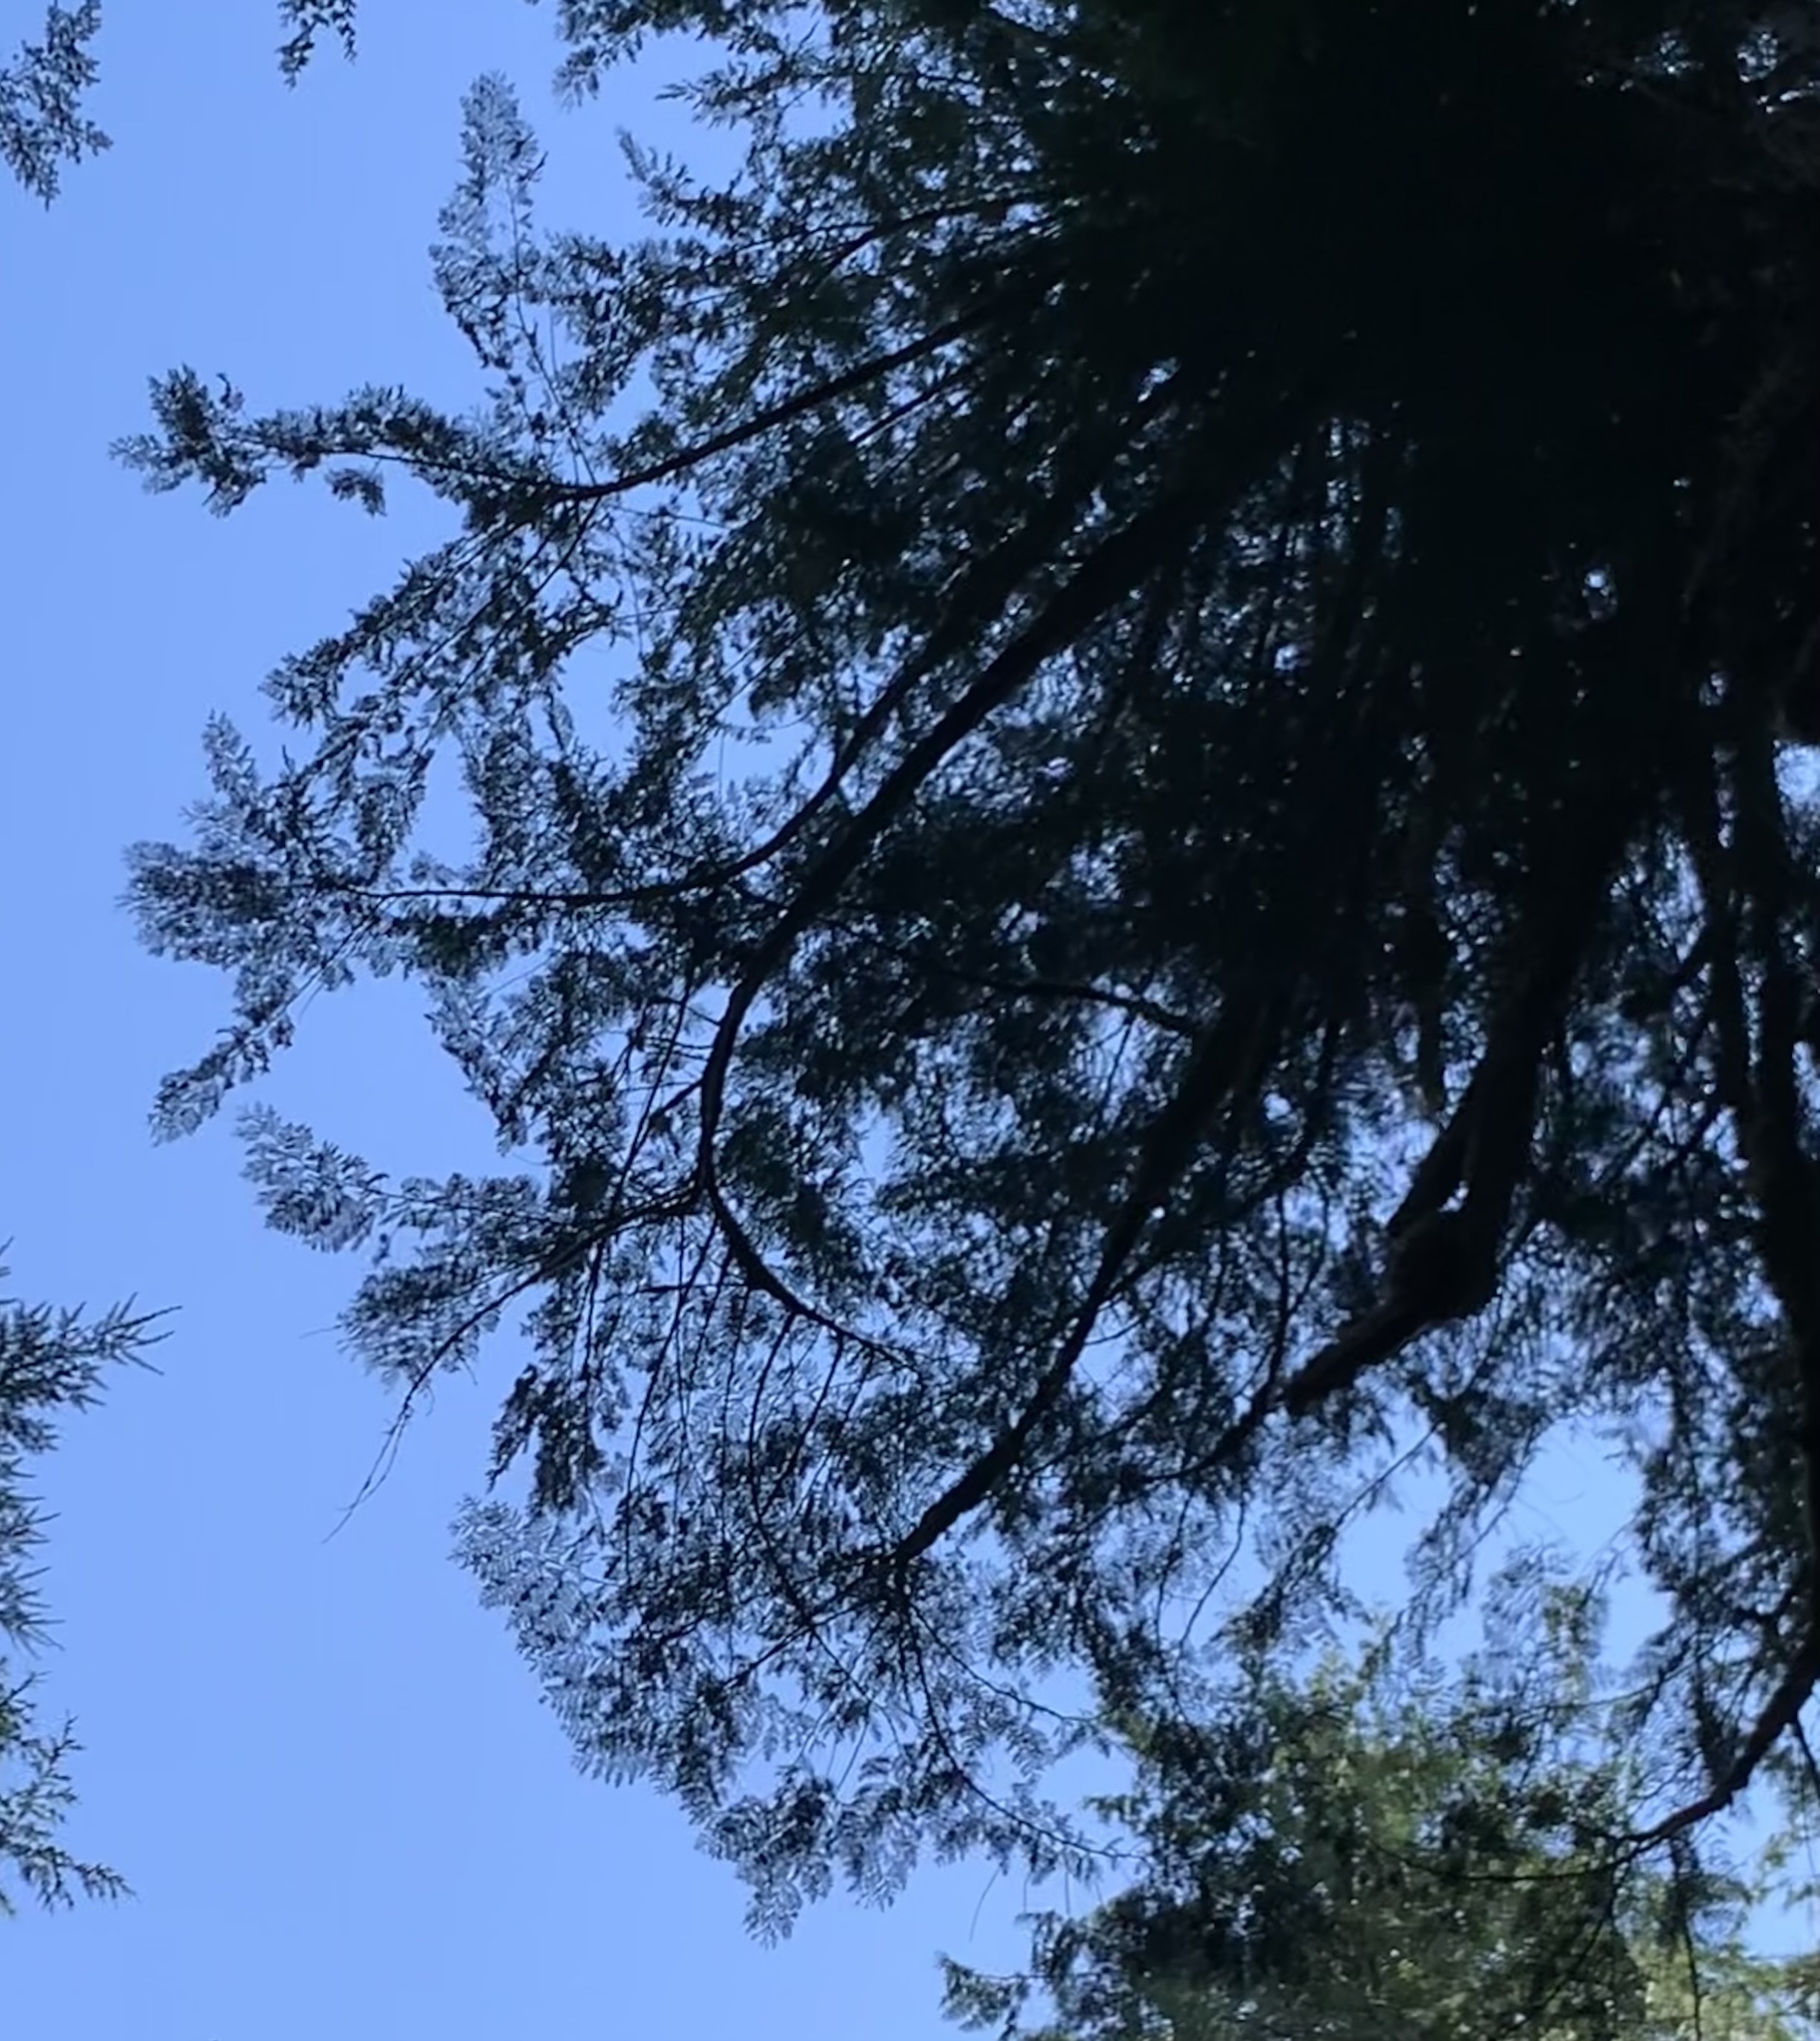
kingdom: Plantae
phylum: Tracheophyta
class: Pinopsida
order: Pinales
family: Cupressaceae
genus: Thuja
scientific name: Thuja plicata
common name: Western red-cedar
